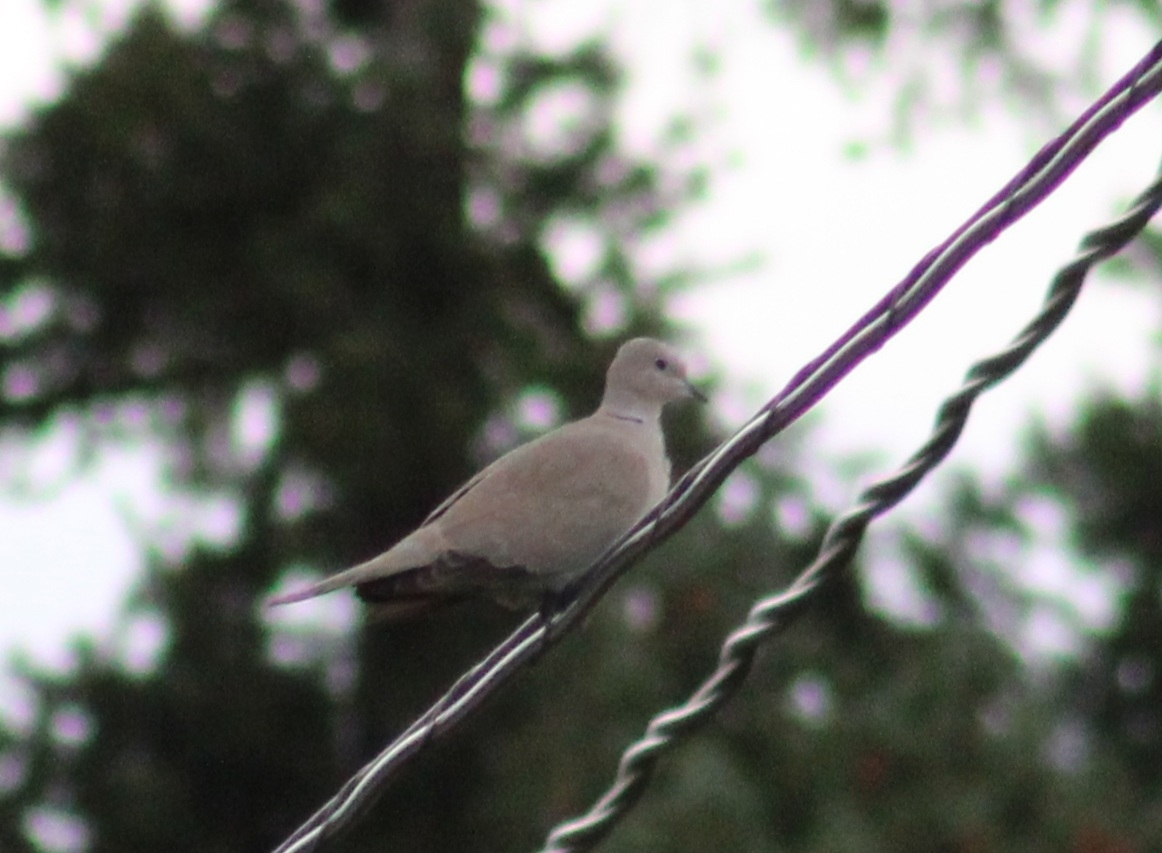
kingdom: Animalia
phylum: Chordata
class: Aves
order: Columbiformes
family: Columbidae
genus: Streptopelia
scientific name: Streptopelia decaocto
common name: Eurasian collared dove
